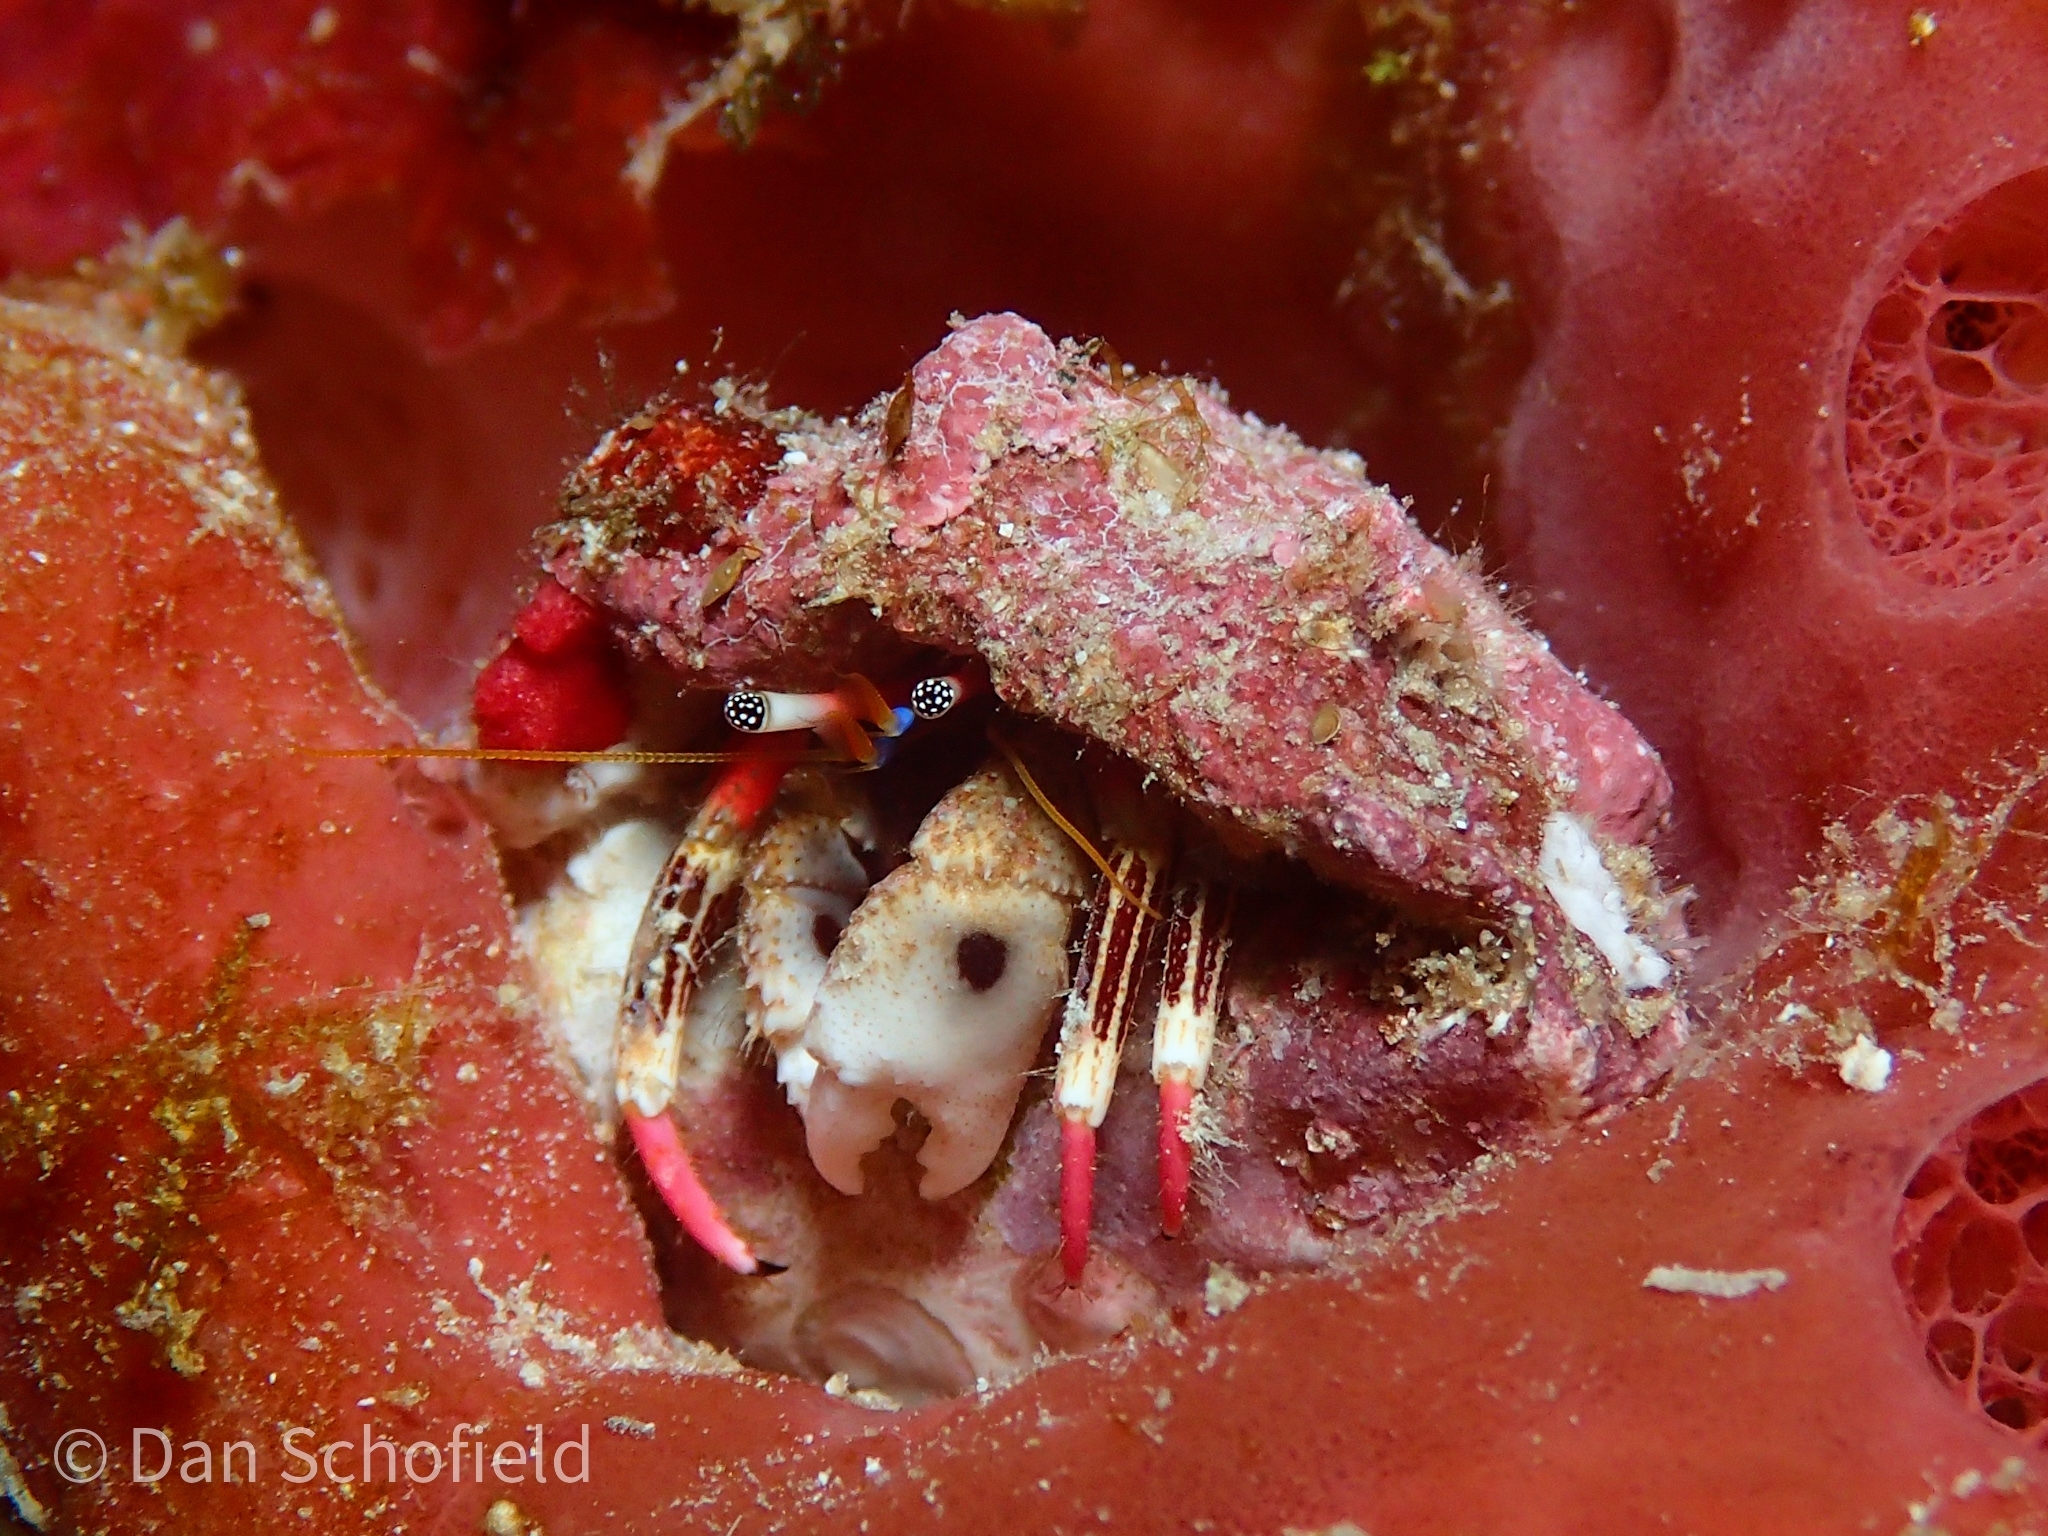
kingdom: Animalia
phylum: Arthropoda
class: Malacostraca
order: Decapoda
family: Diogenidae
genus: Calcinus
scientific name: Calcinus lineapropodus
